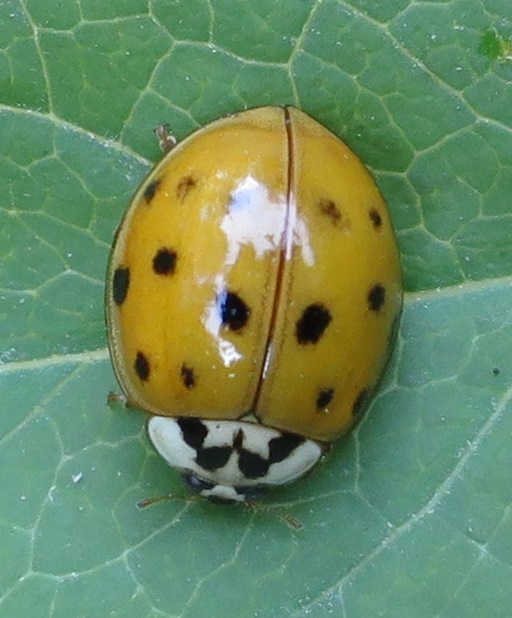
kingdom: Animalia
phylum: Arthropoda
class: Insecta
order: Coleoptera
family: Coccinellidae
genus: Harmonia
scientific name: Harmonia axyridis
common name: Harlequin ladybird
